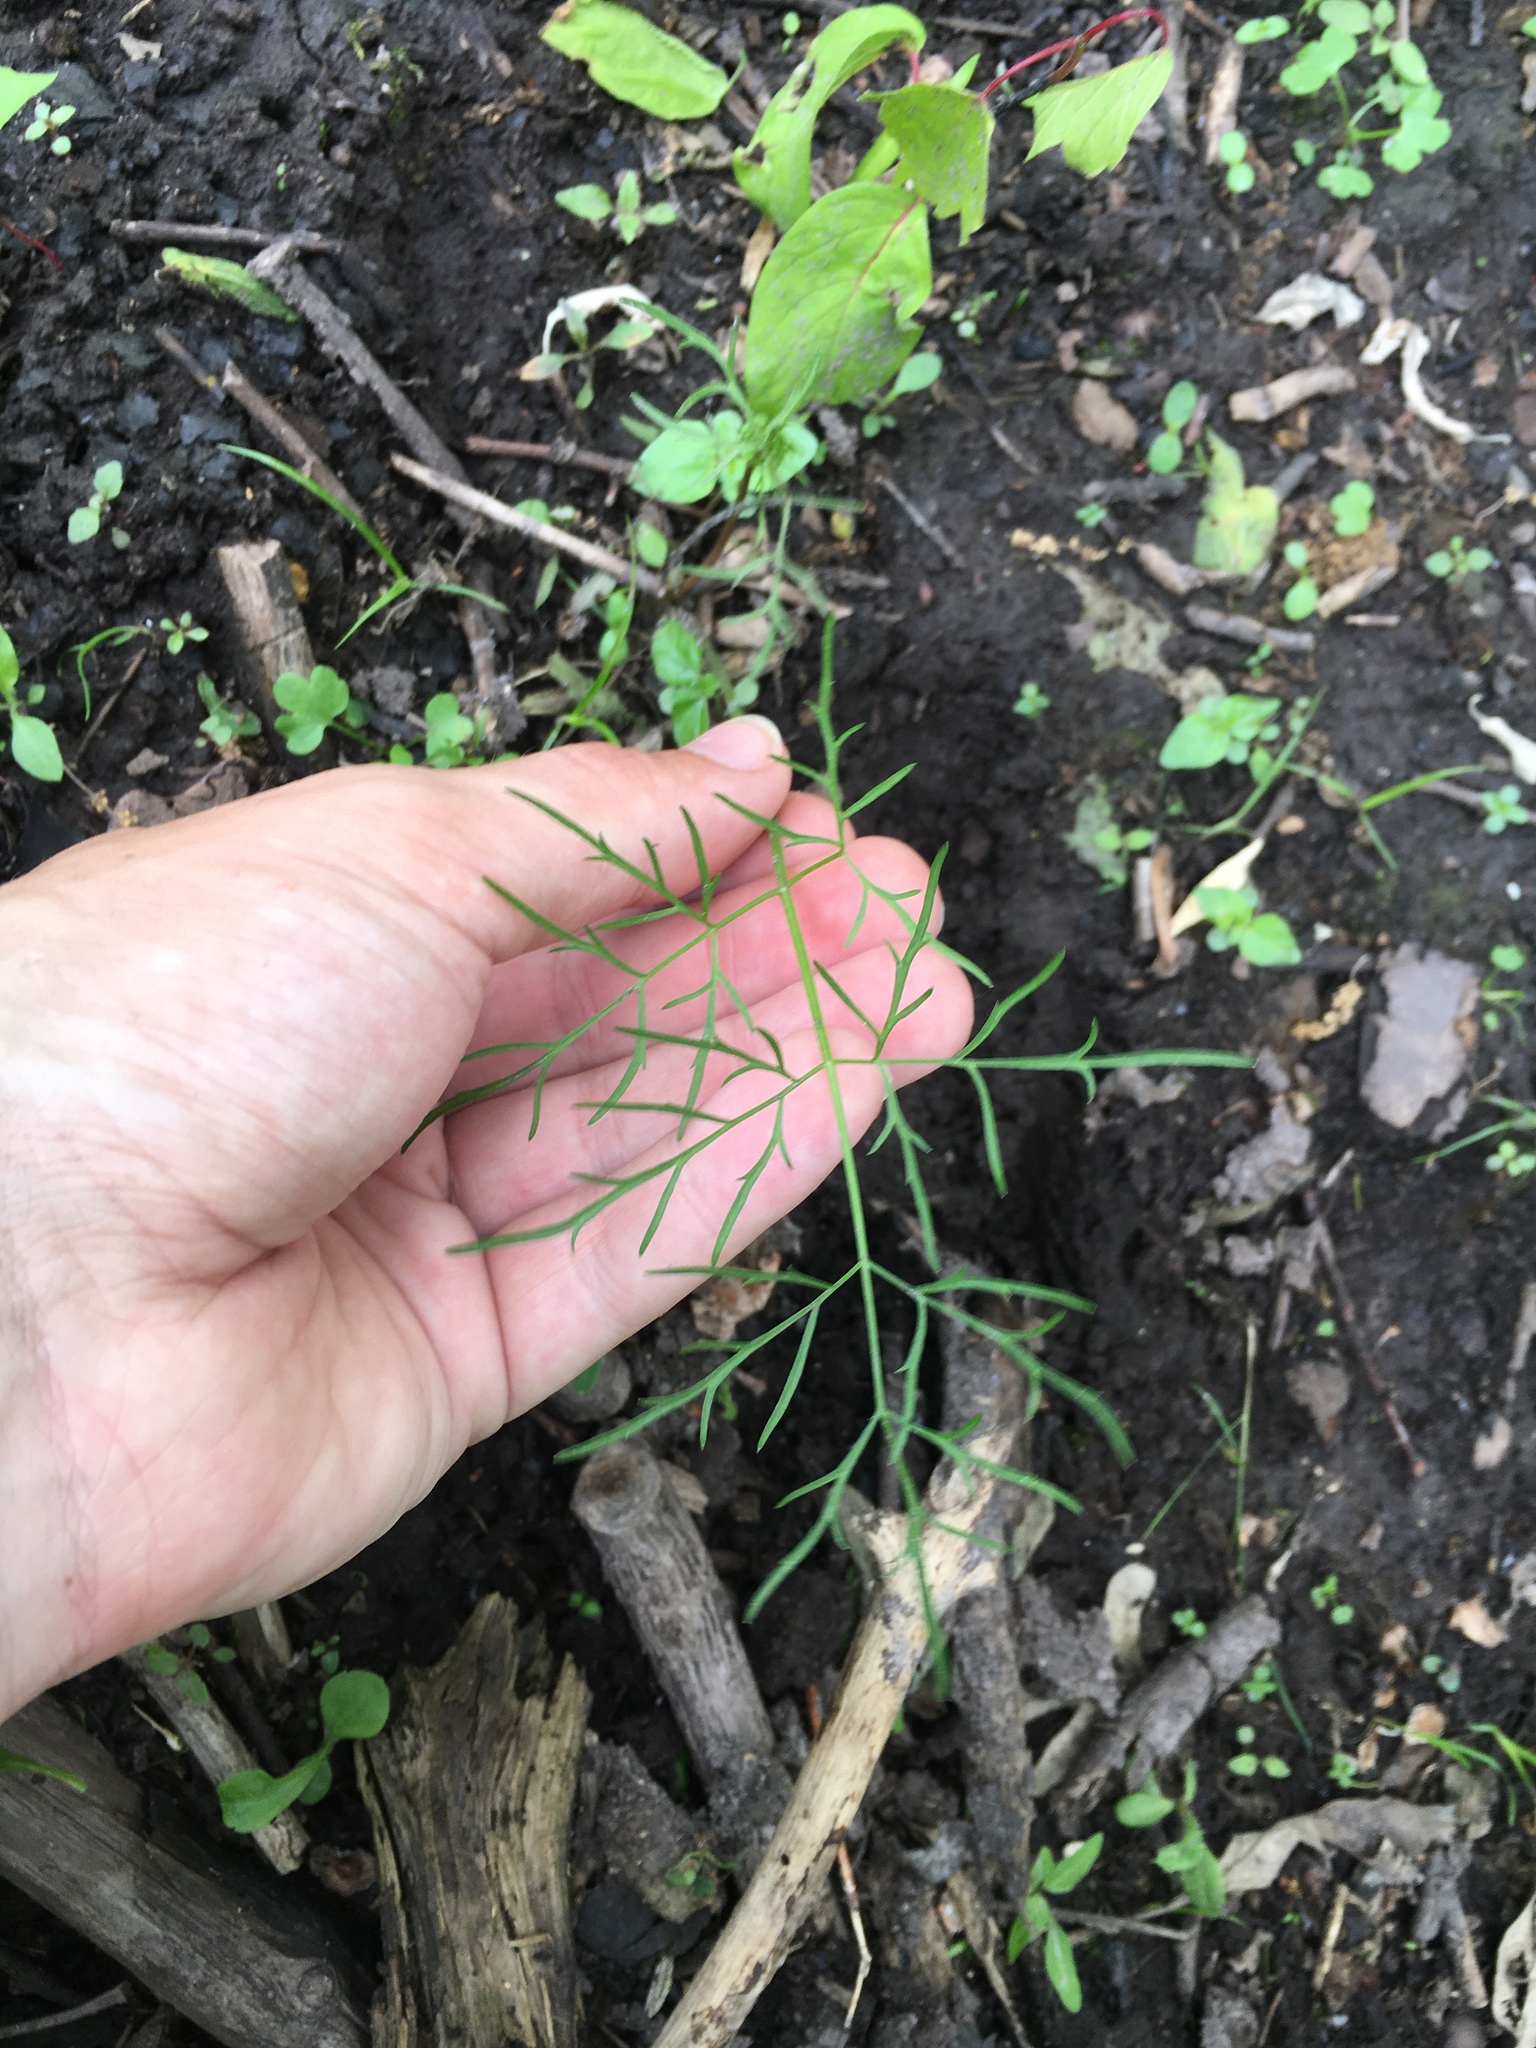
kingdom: Plantae
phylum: Tracheophyta
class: Magnoliopsida
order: Apiales
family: Apiaceae
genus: Cicuta
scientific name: Cicuta bulbifera
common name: Bulb-bearing water-hemlock
